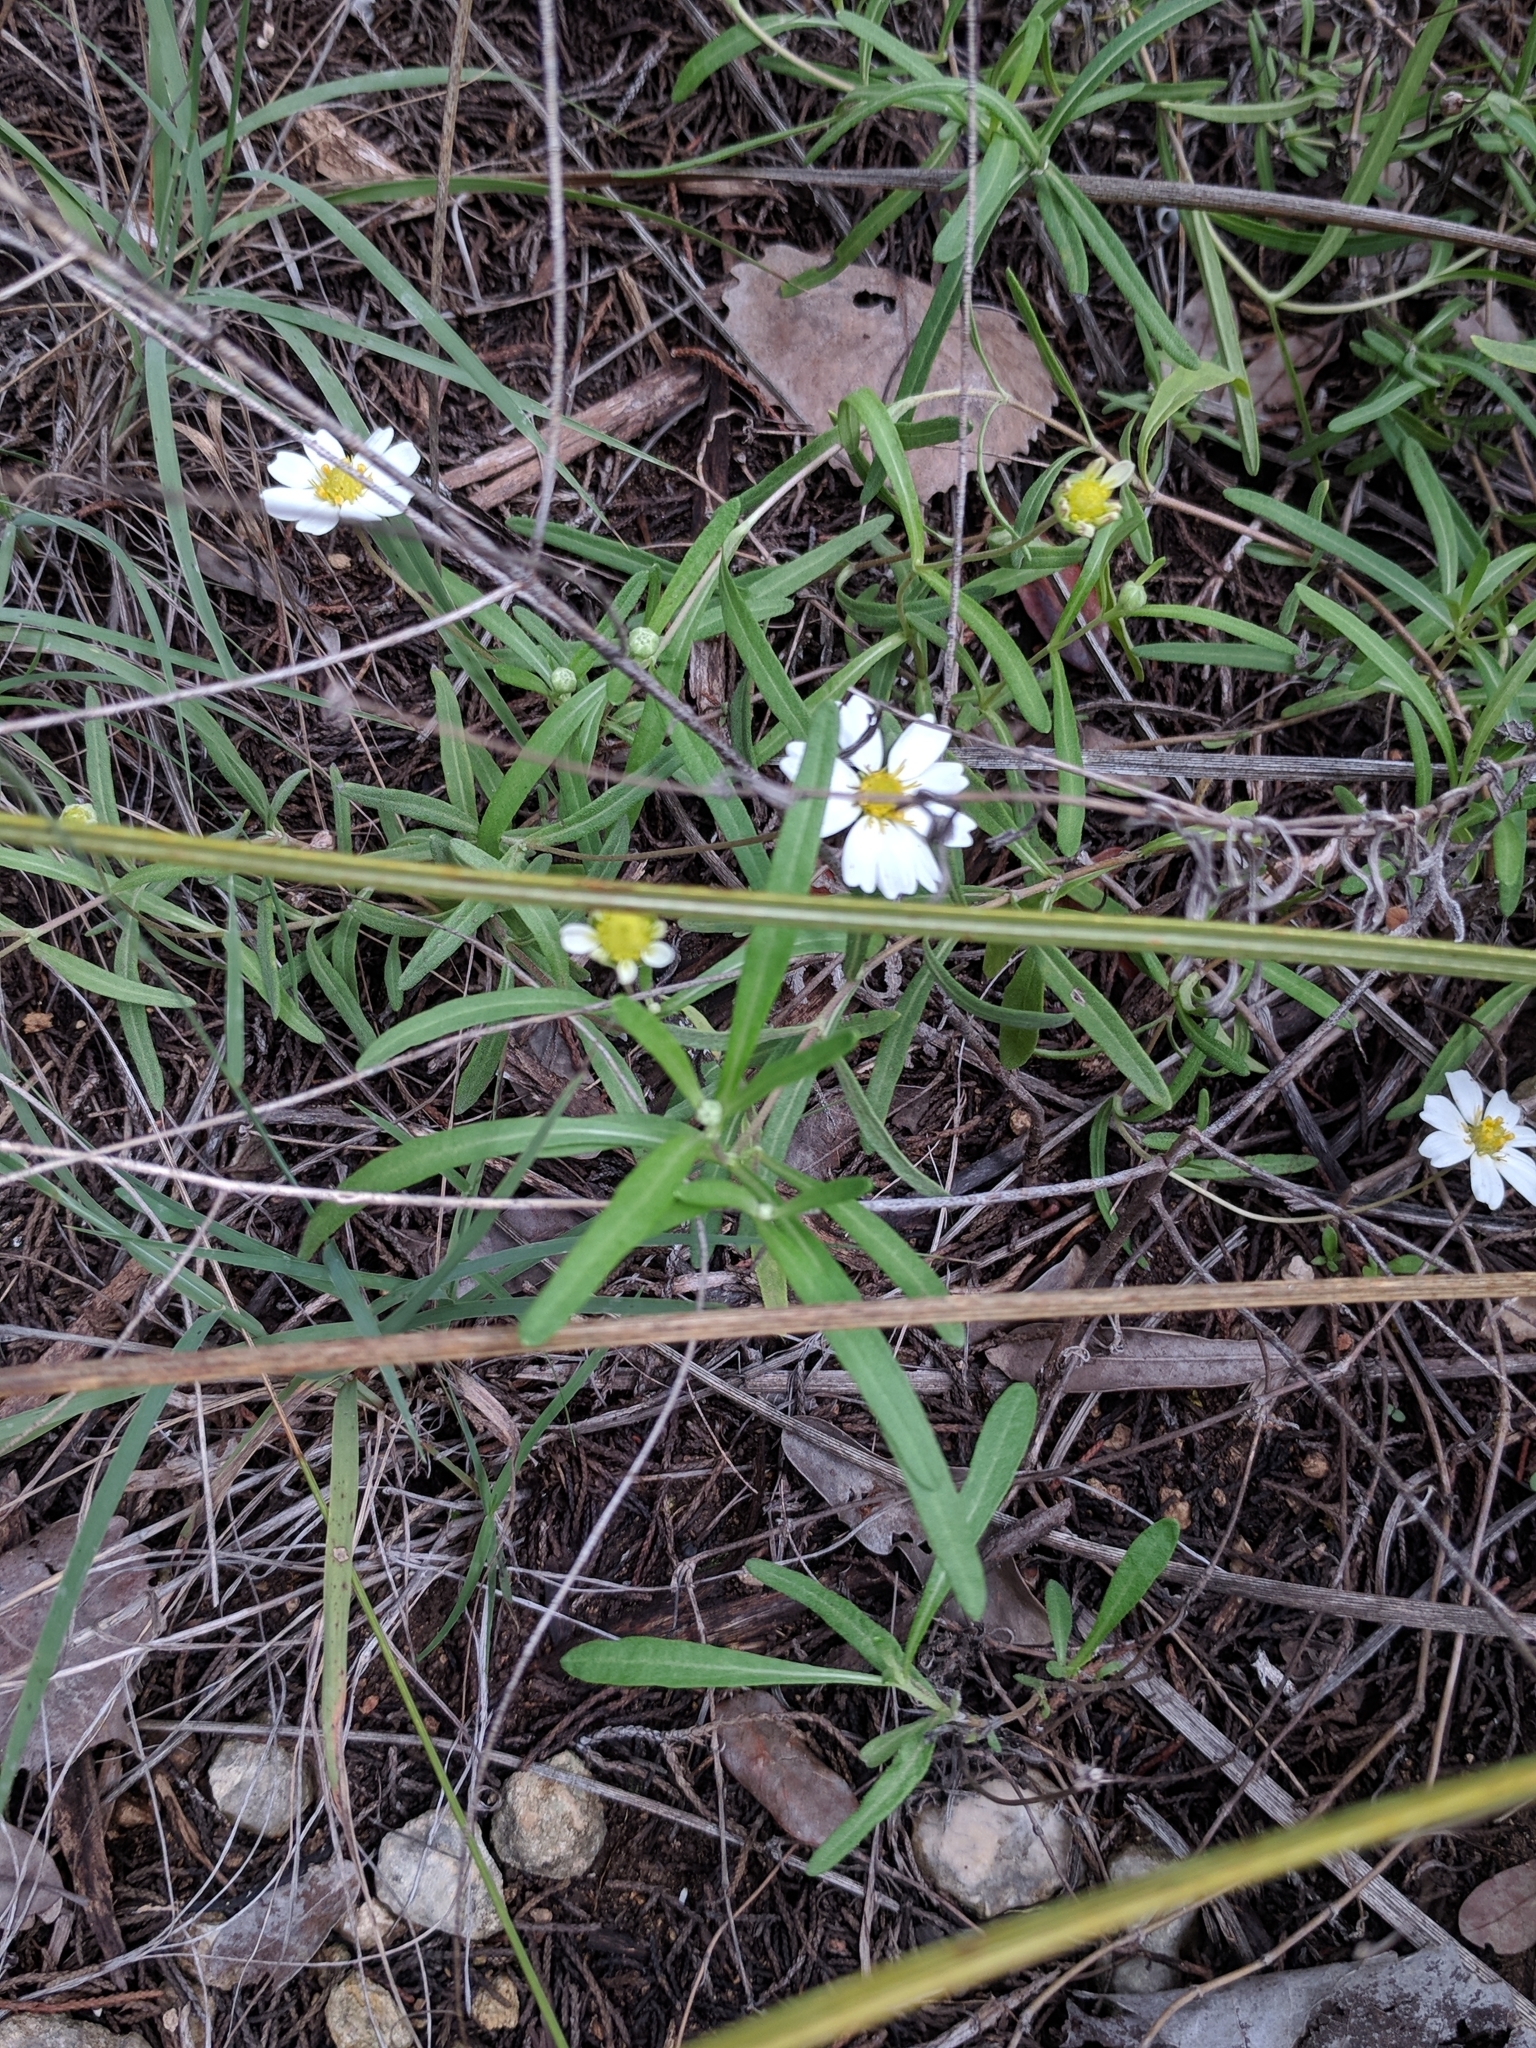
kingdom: Plantae
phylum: Tracheophyta
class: Magnoliopsida
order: Asterales
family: Asteraceae
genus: Melampodium
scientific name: Melampodium leucanthum
